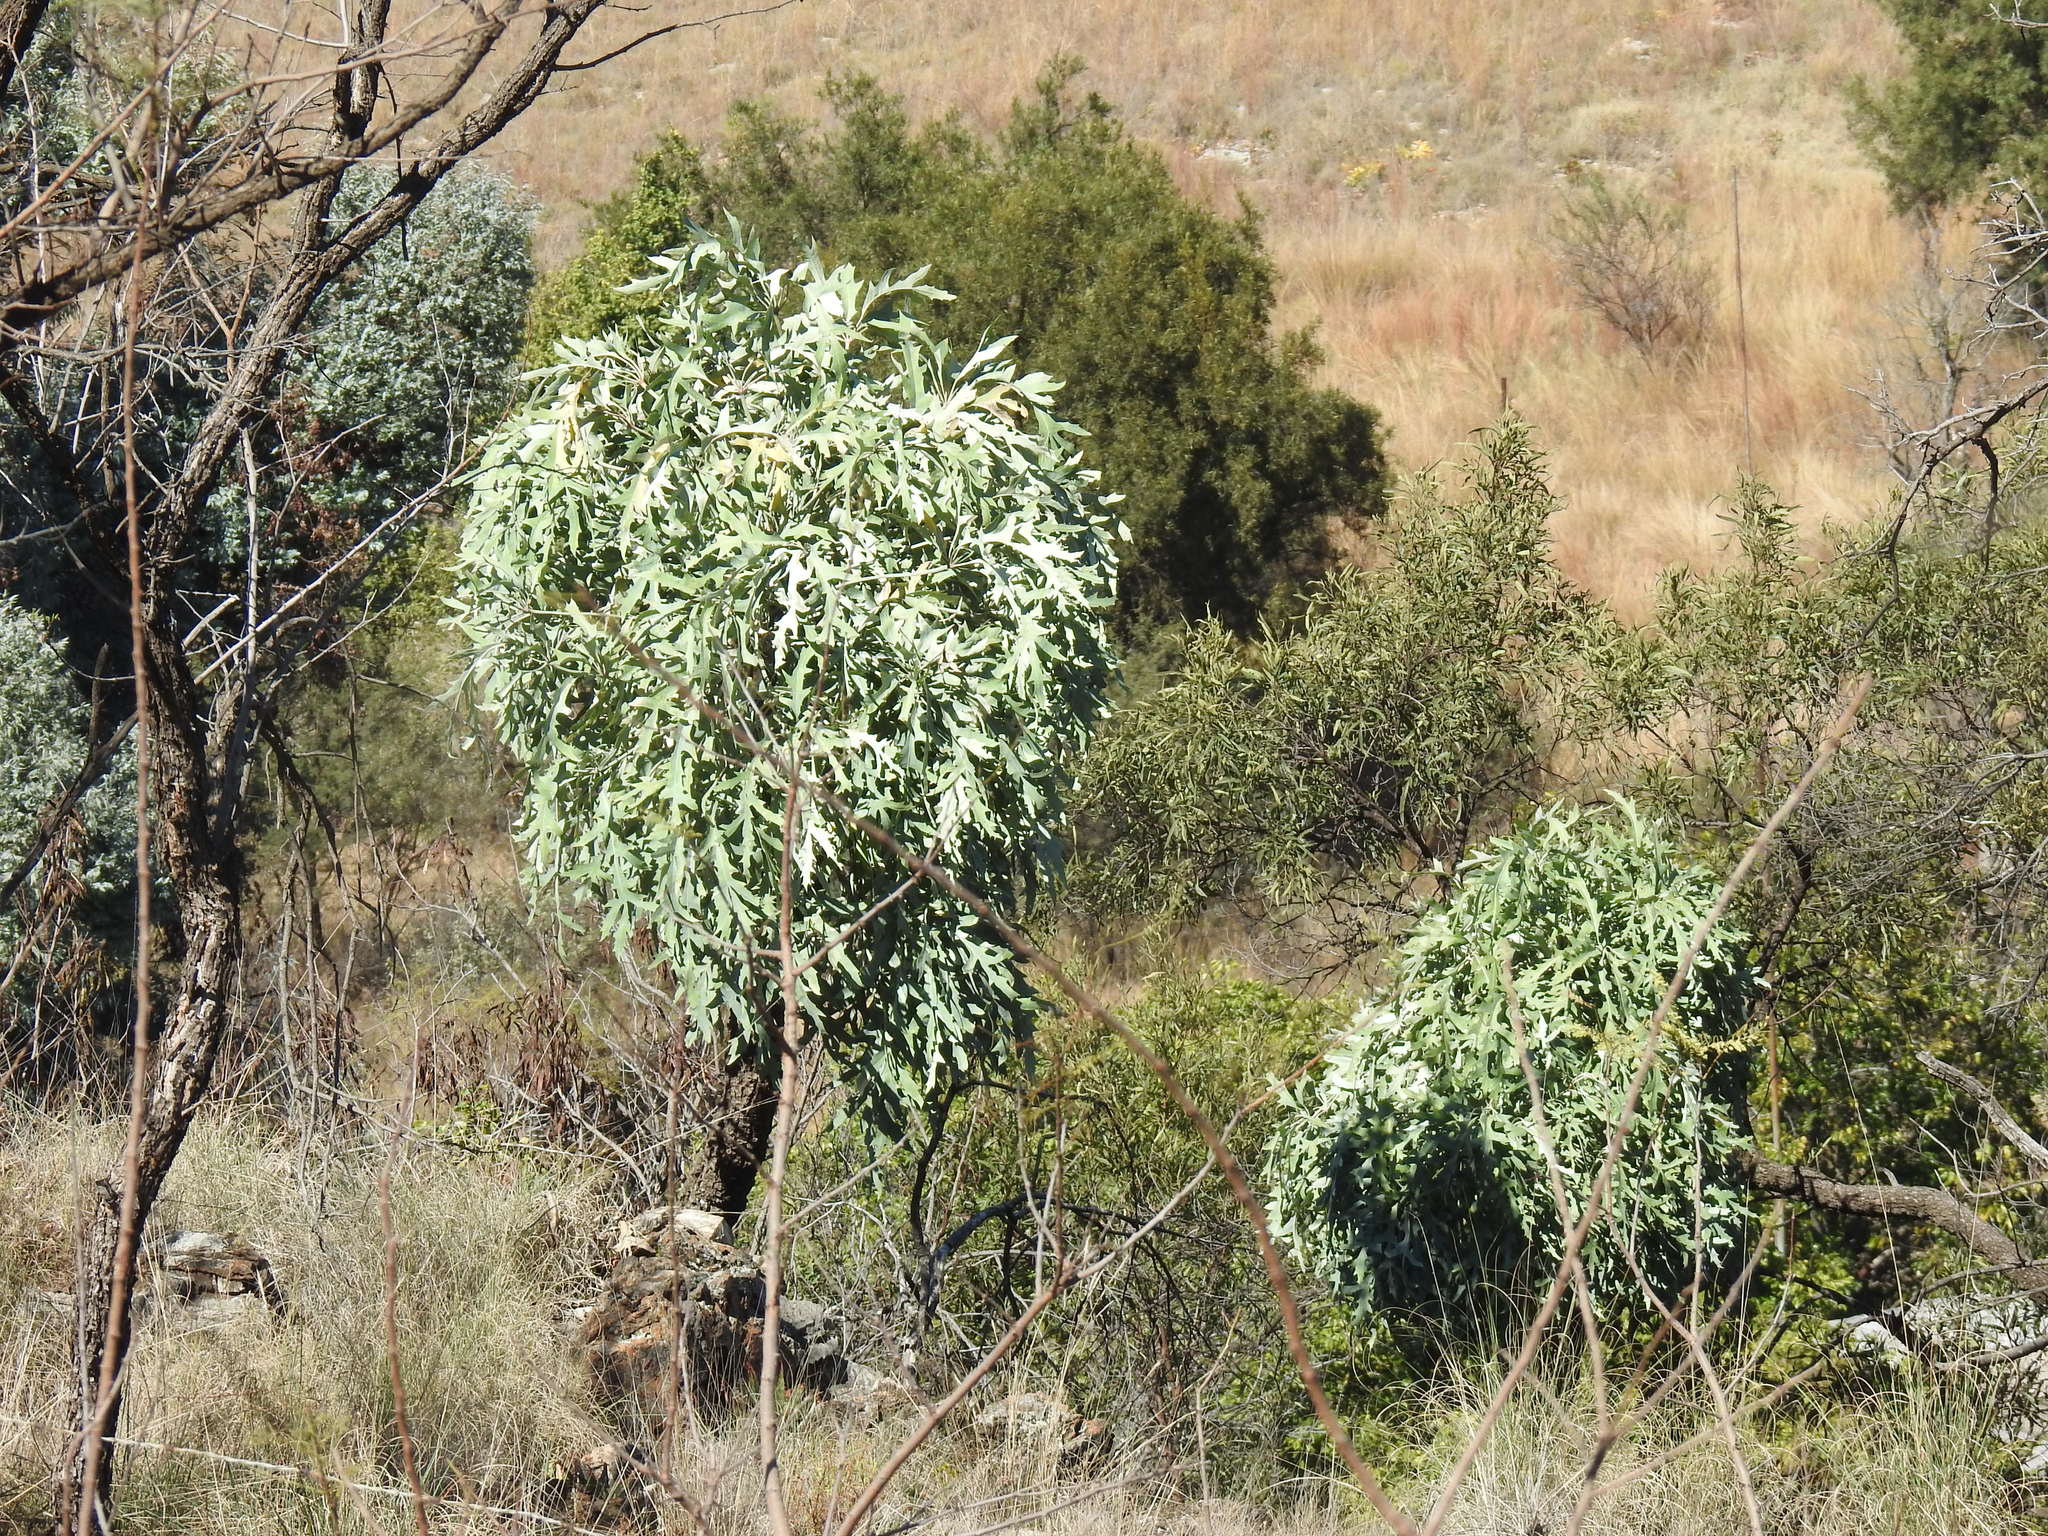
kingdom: Plantae
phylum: Tracheophyta
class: Magnoliopsida
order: Apiales
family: Araliaceae
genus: Cussonia
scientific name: Cussonia paniculata
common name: Cabbagetree
